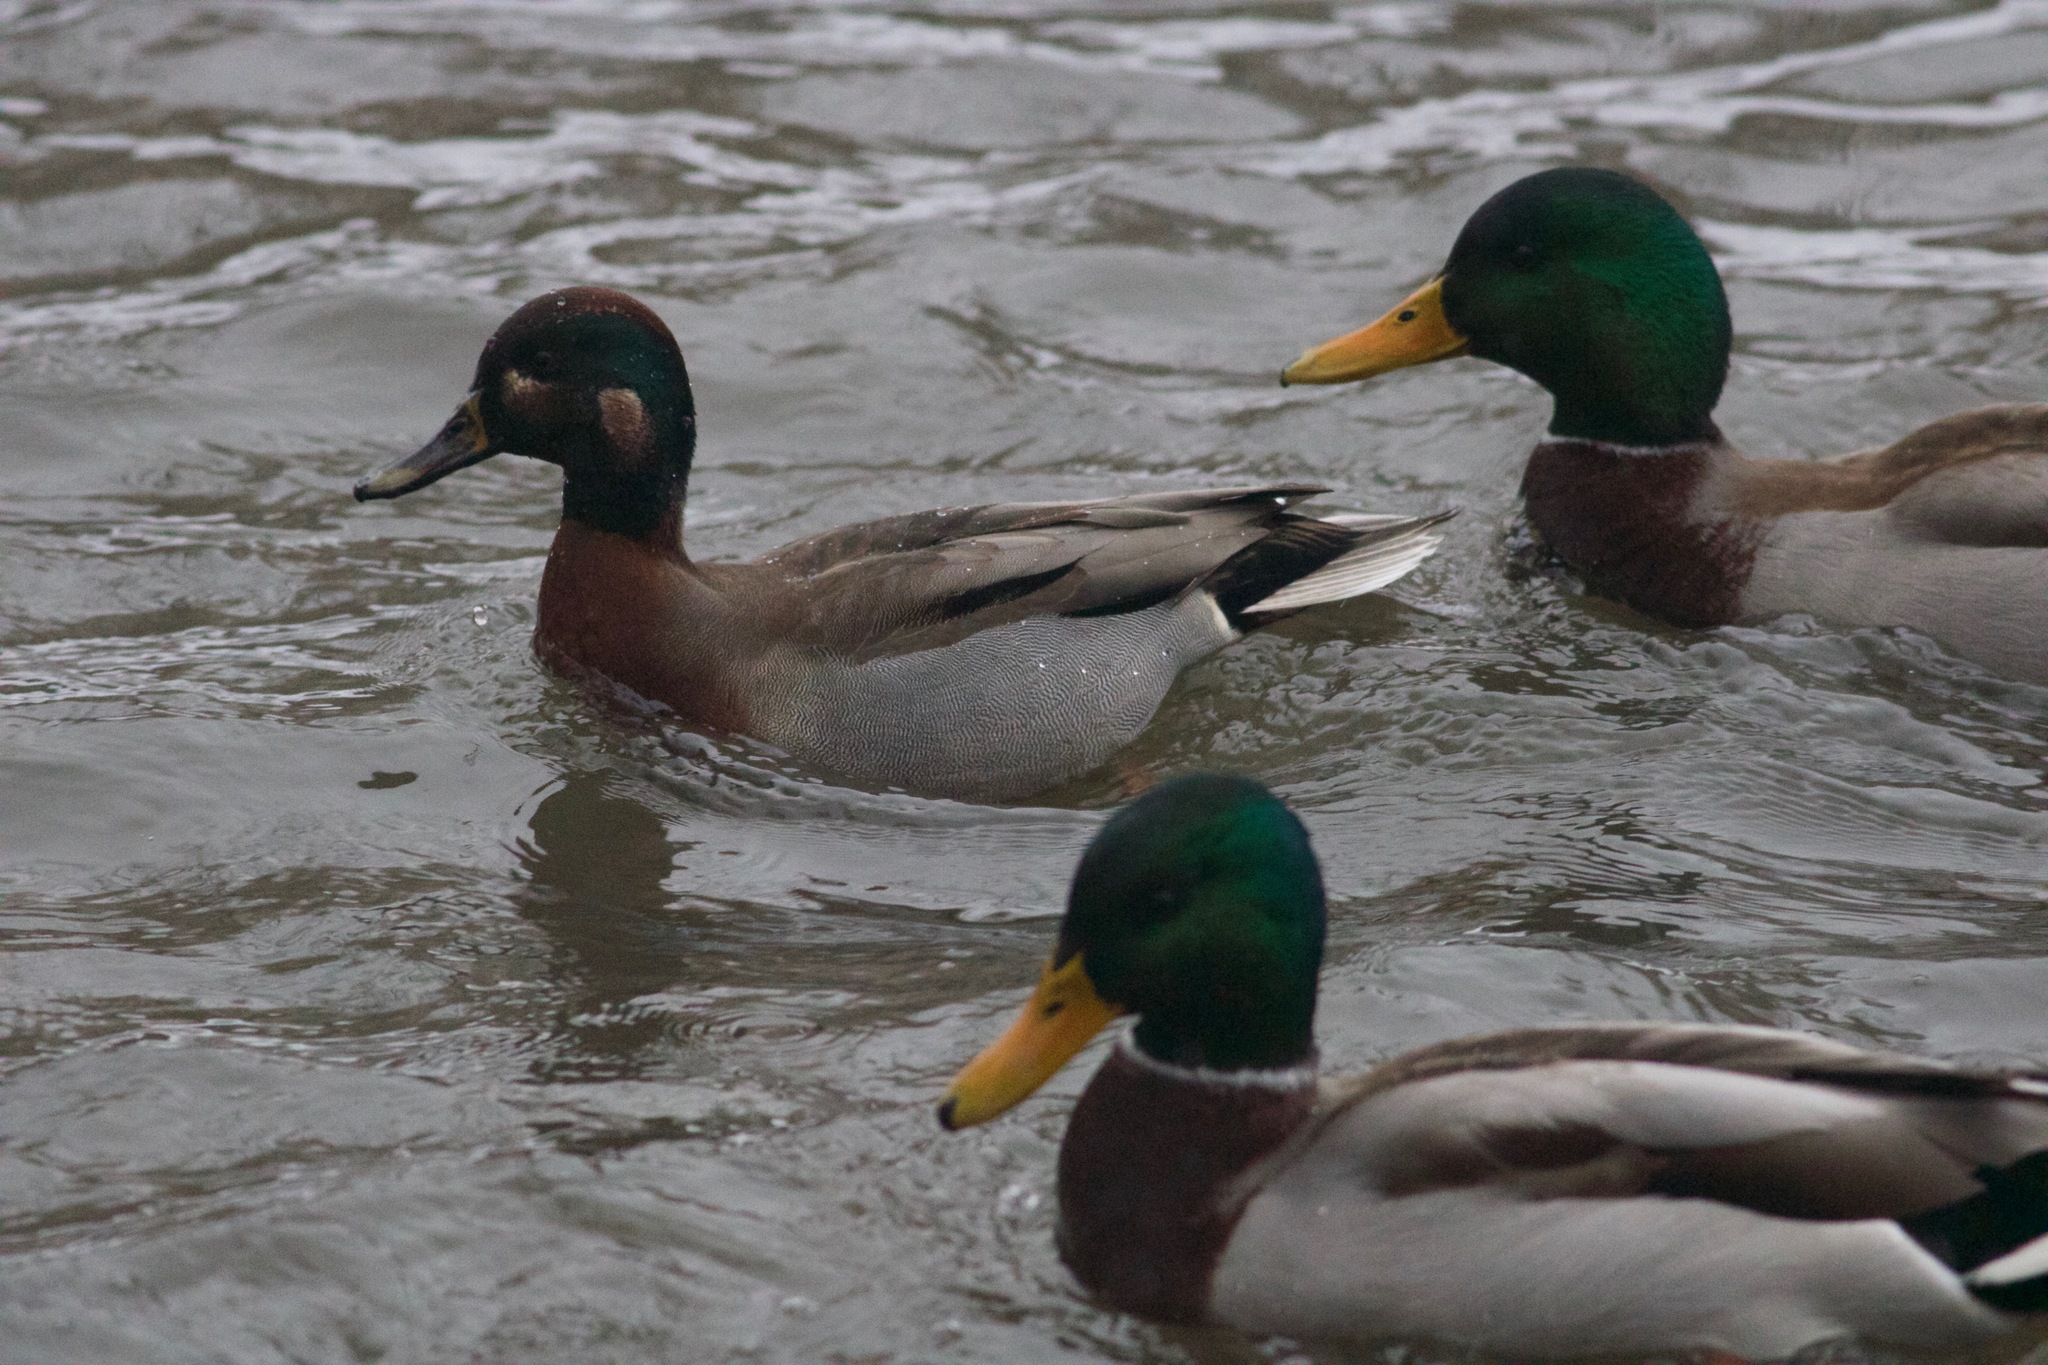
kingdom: Animalia
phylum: Chordata
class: Aves
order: Anseriformes
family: Anatidae
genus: Anas
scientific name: Anas
